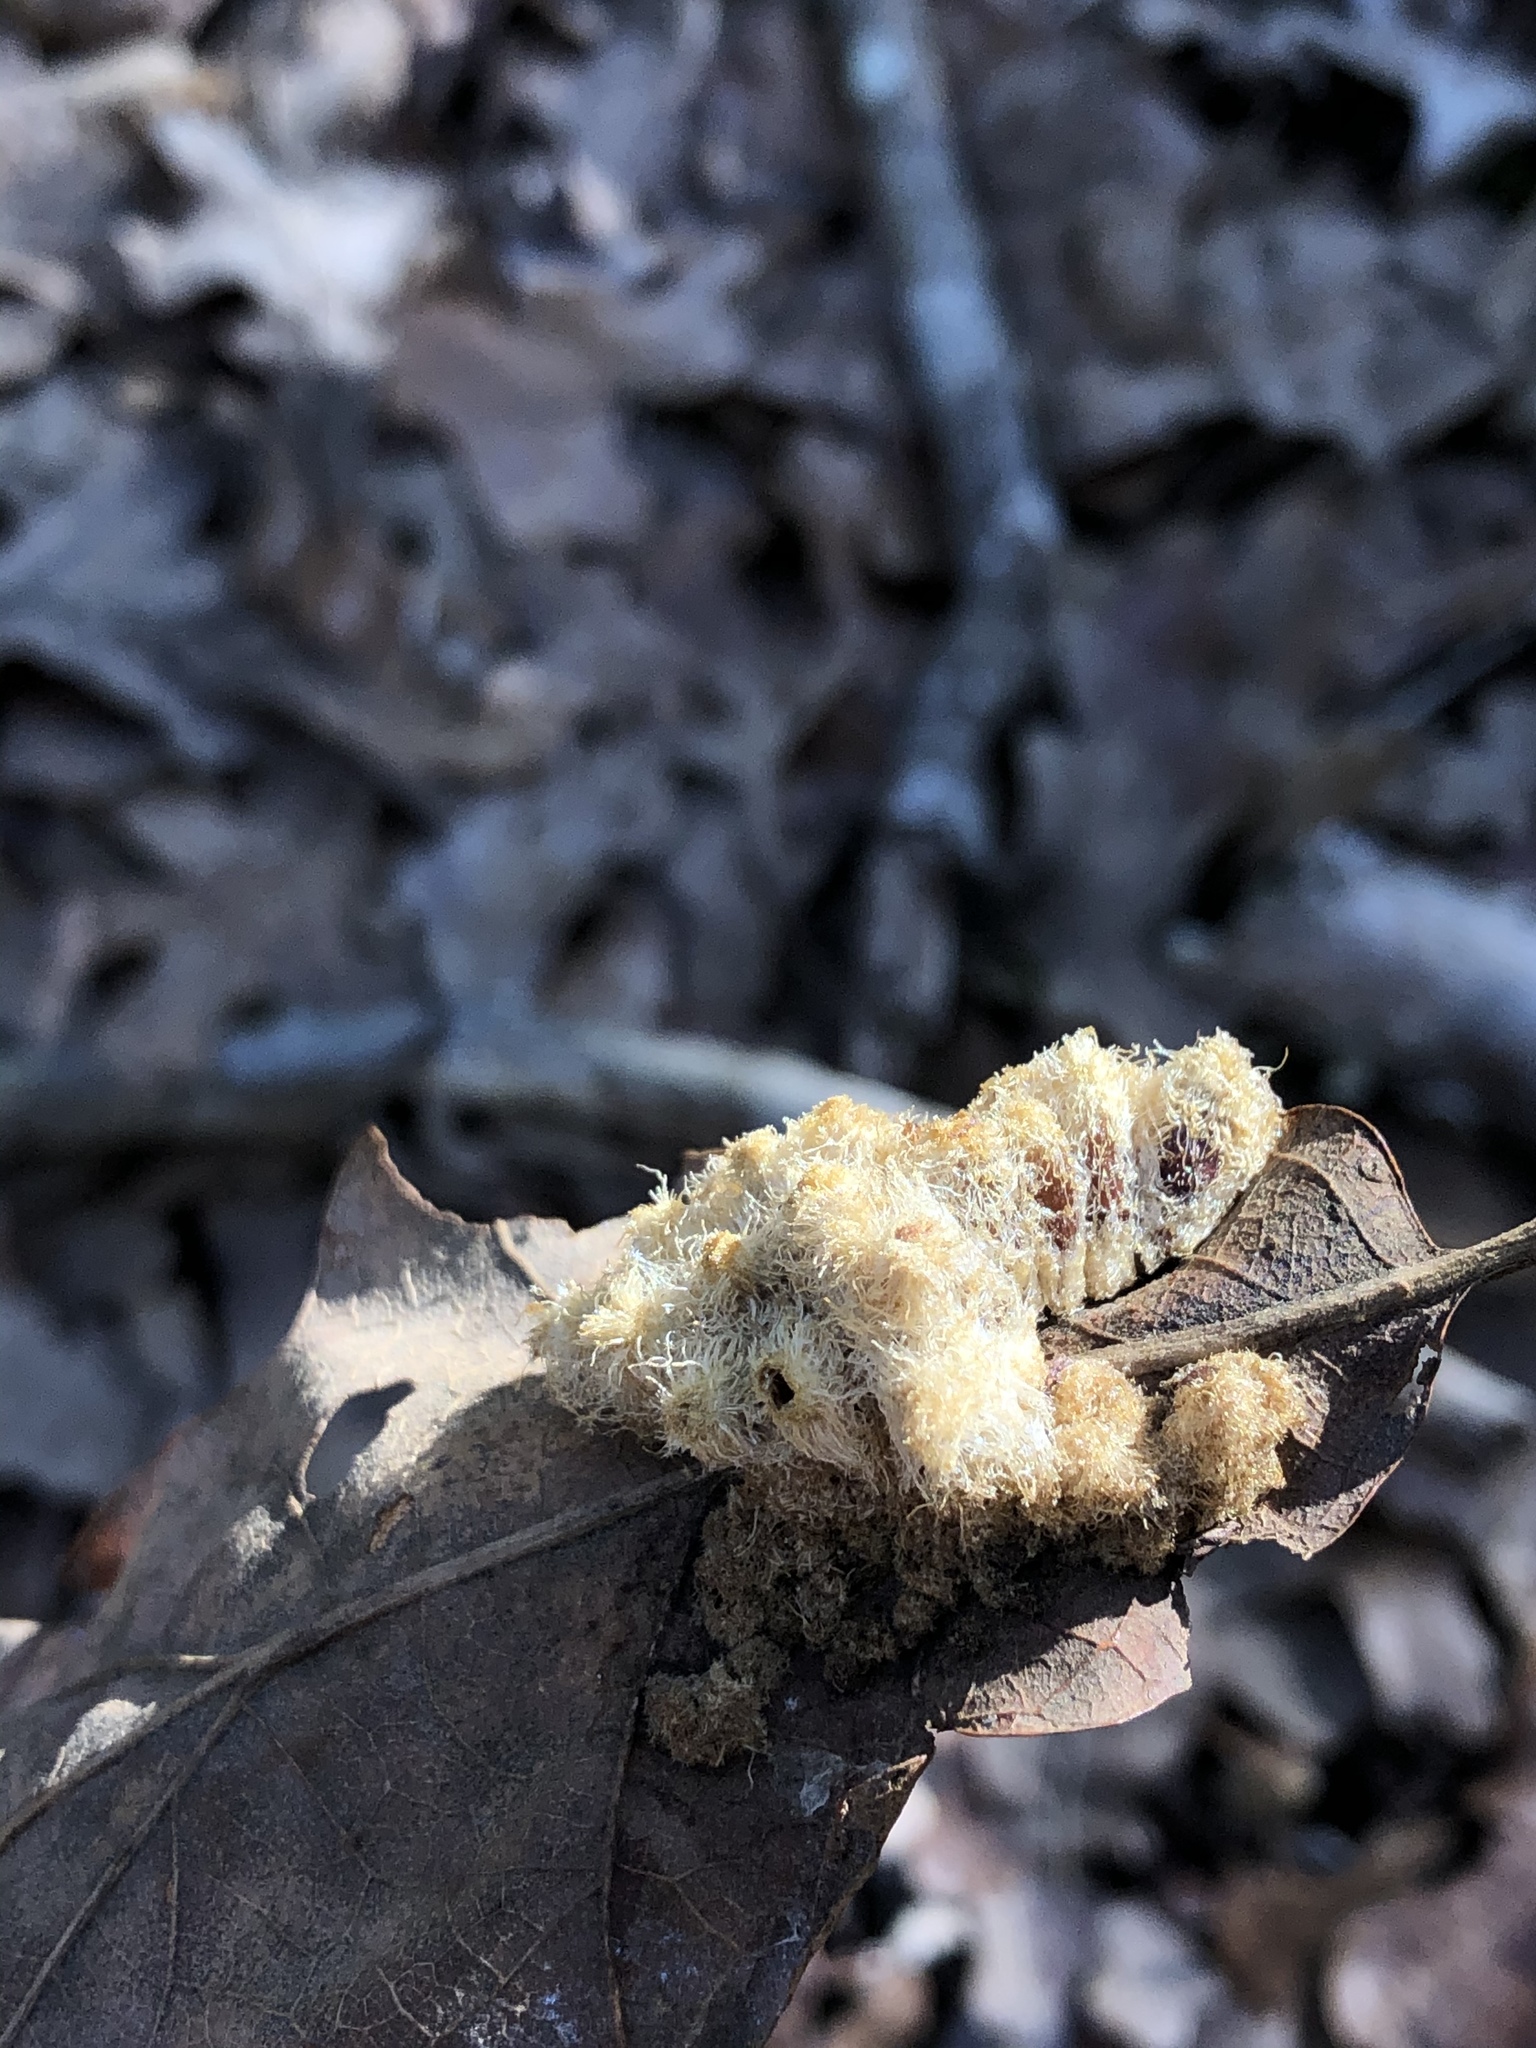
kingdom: Animalia
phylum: Arthropoda
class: Insecta
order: Hymenoptera
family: Cynipidae
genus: Andricus
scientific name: Andricus
